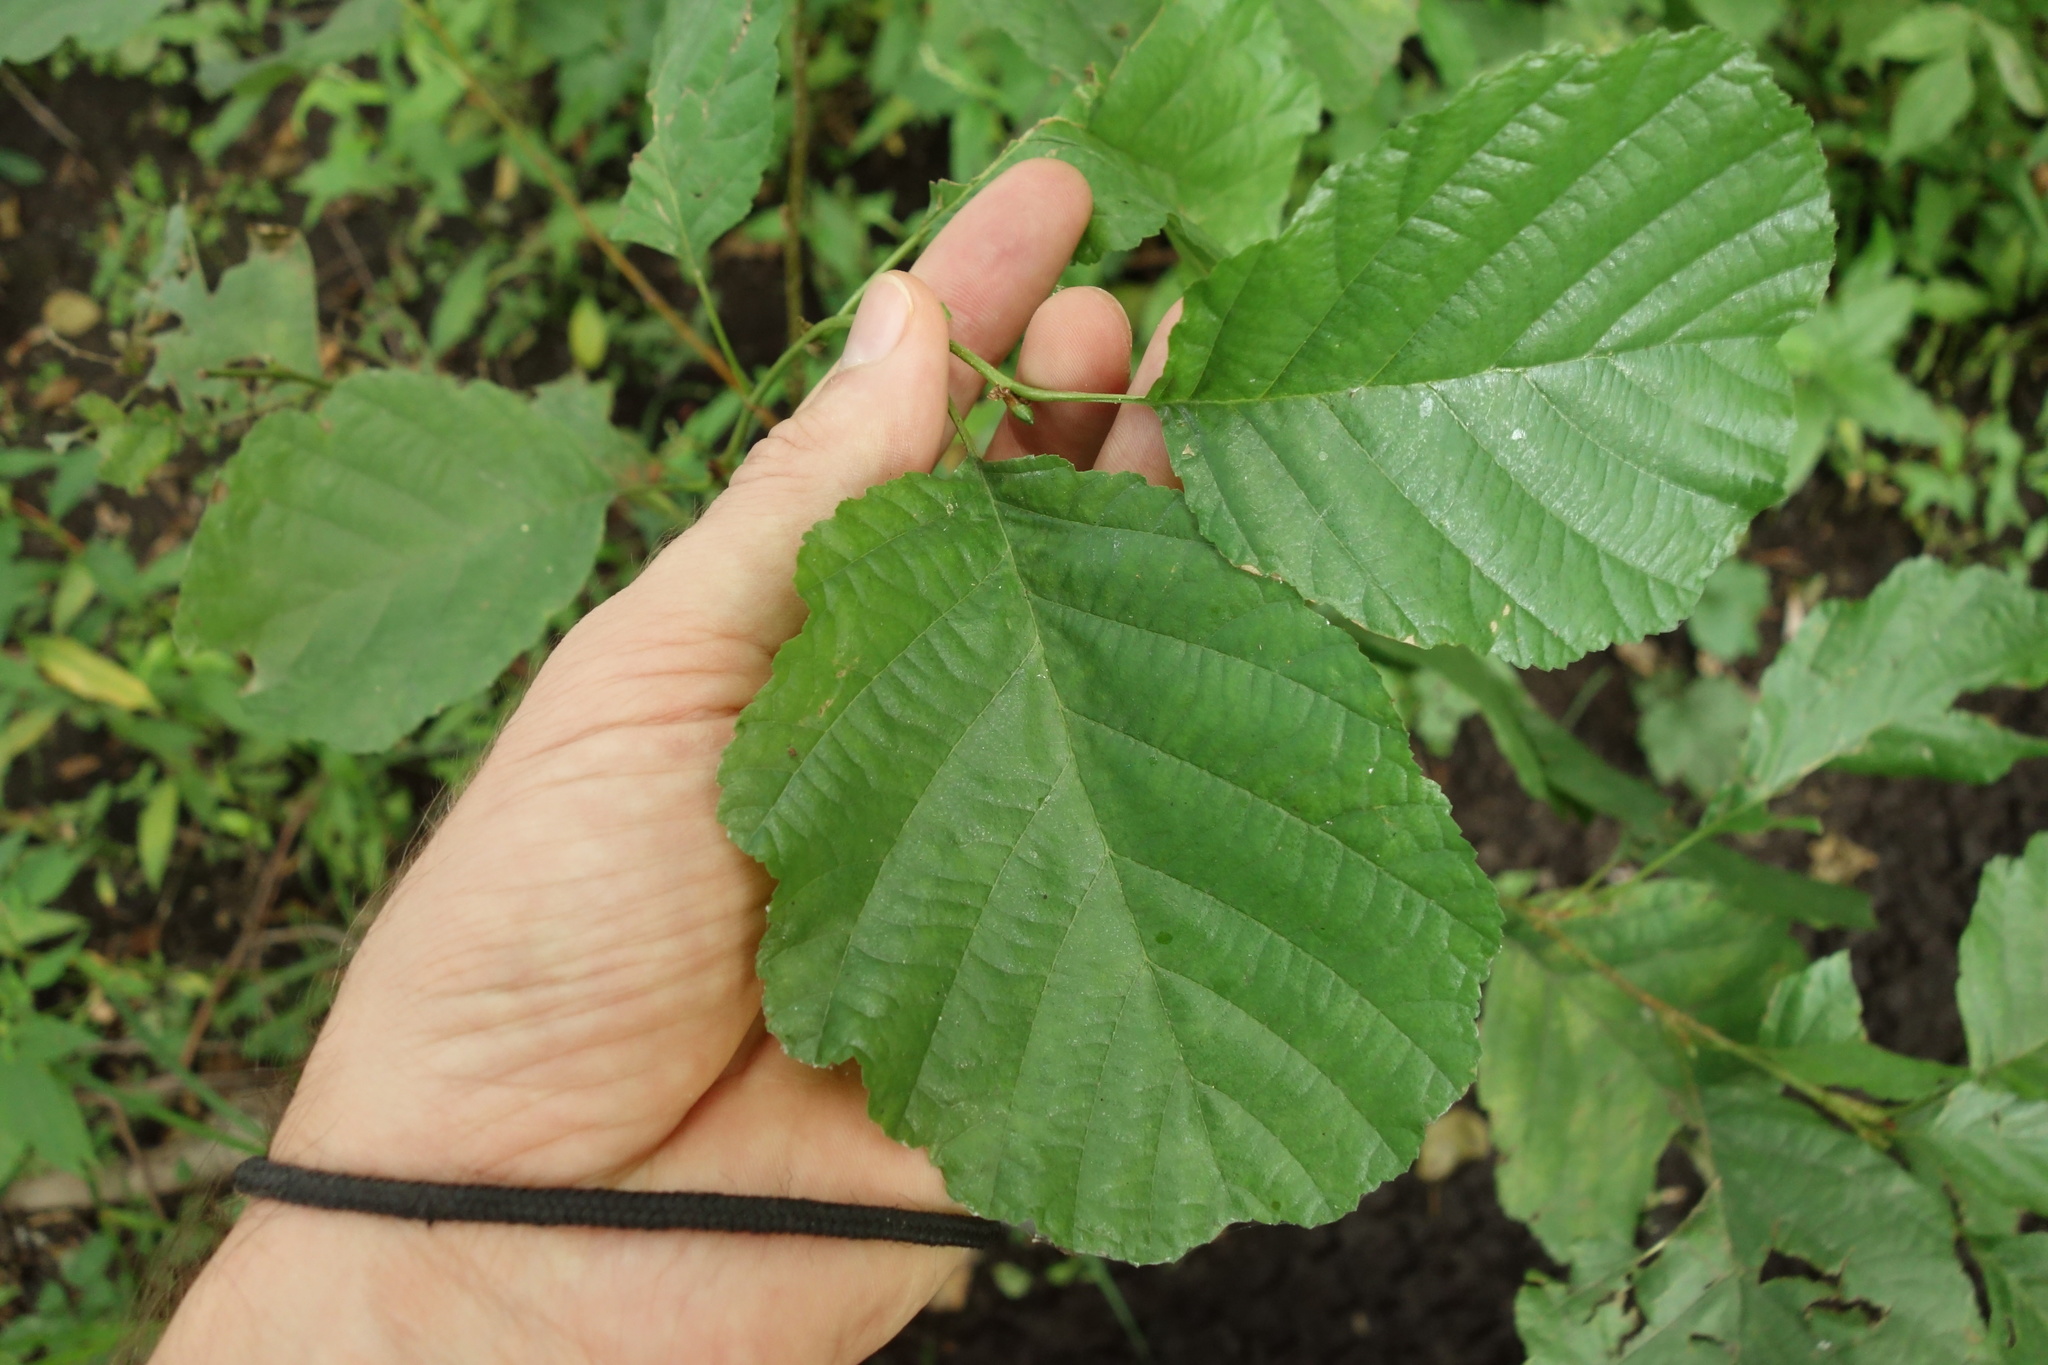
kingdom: Plantae
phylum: Tracheophyta
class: Magnoliopsida
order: Fagales
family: Betulaceae
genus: Alnus
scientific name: Alnus glutinosa
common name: Black alder
